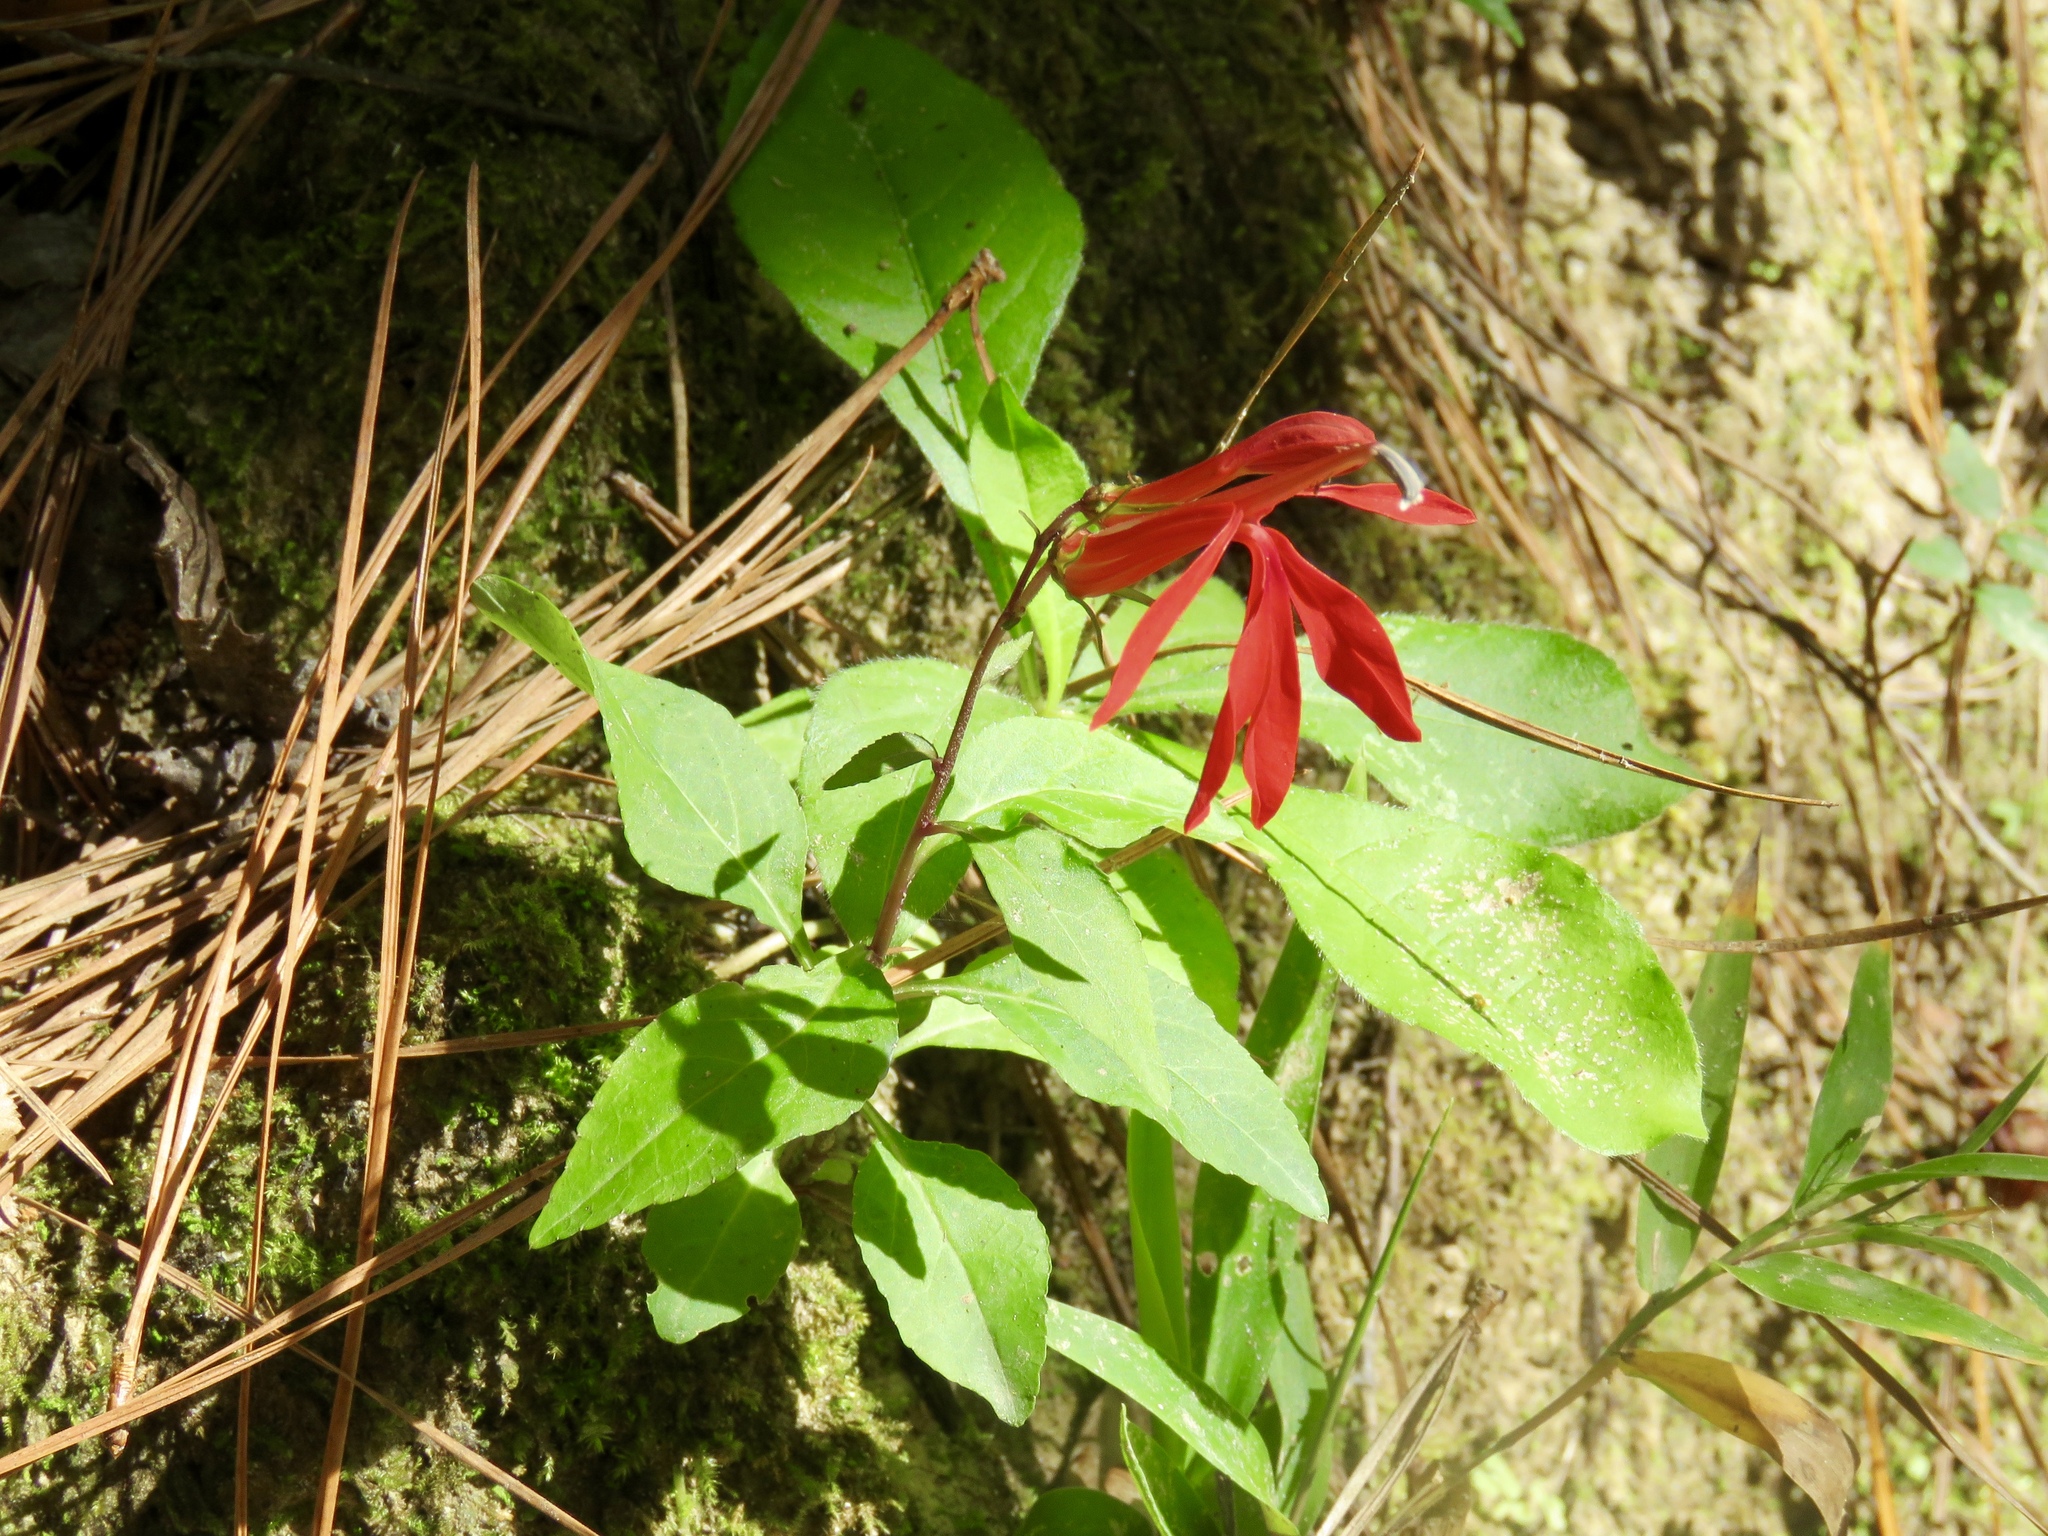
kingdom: Plantae
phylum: Tracheophyta
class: Magnoliopsida
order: Asterales
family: Campanulaceae
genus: Lobelia
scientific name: Lobelia cardinalis
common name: Cardinal flower
